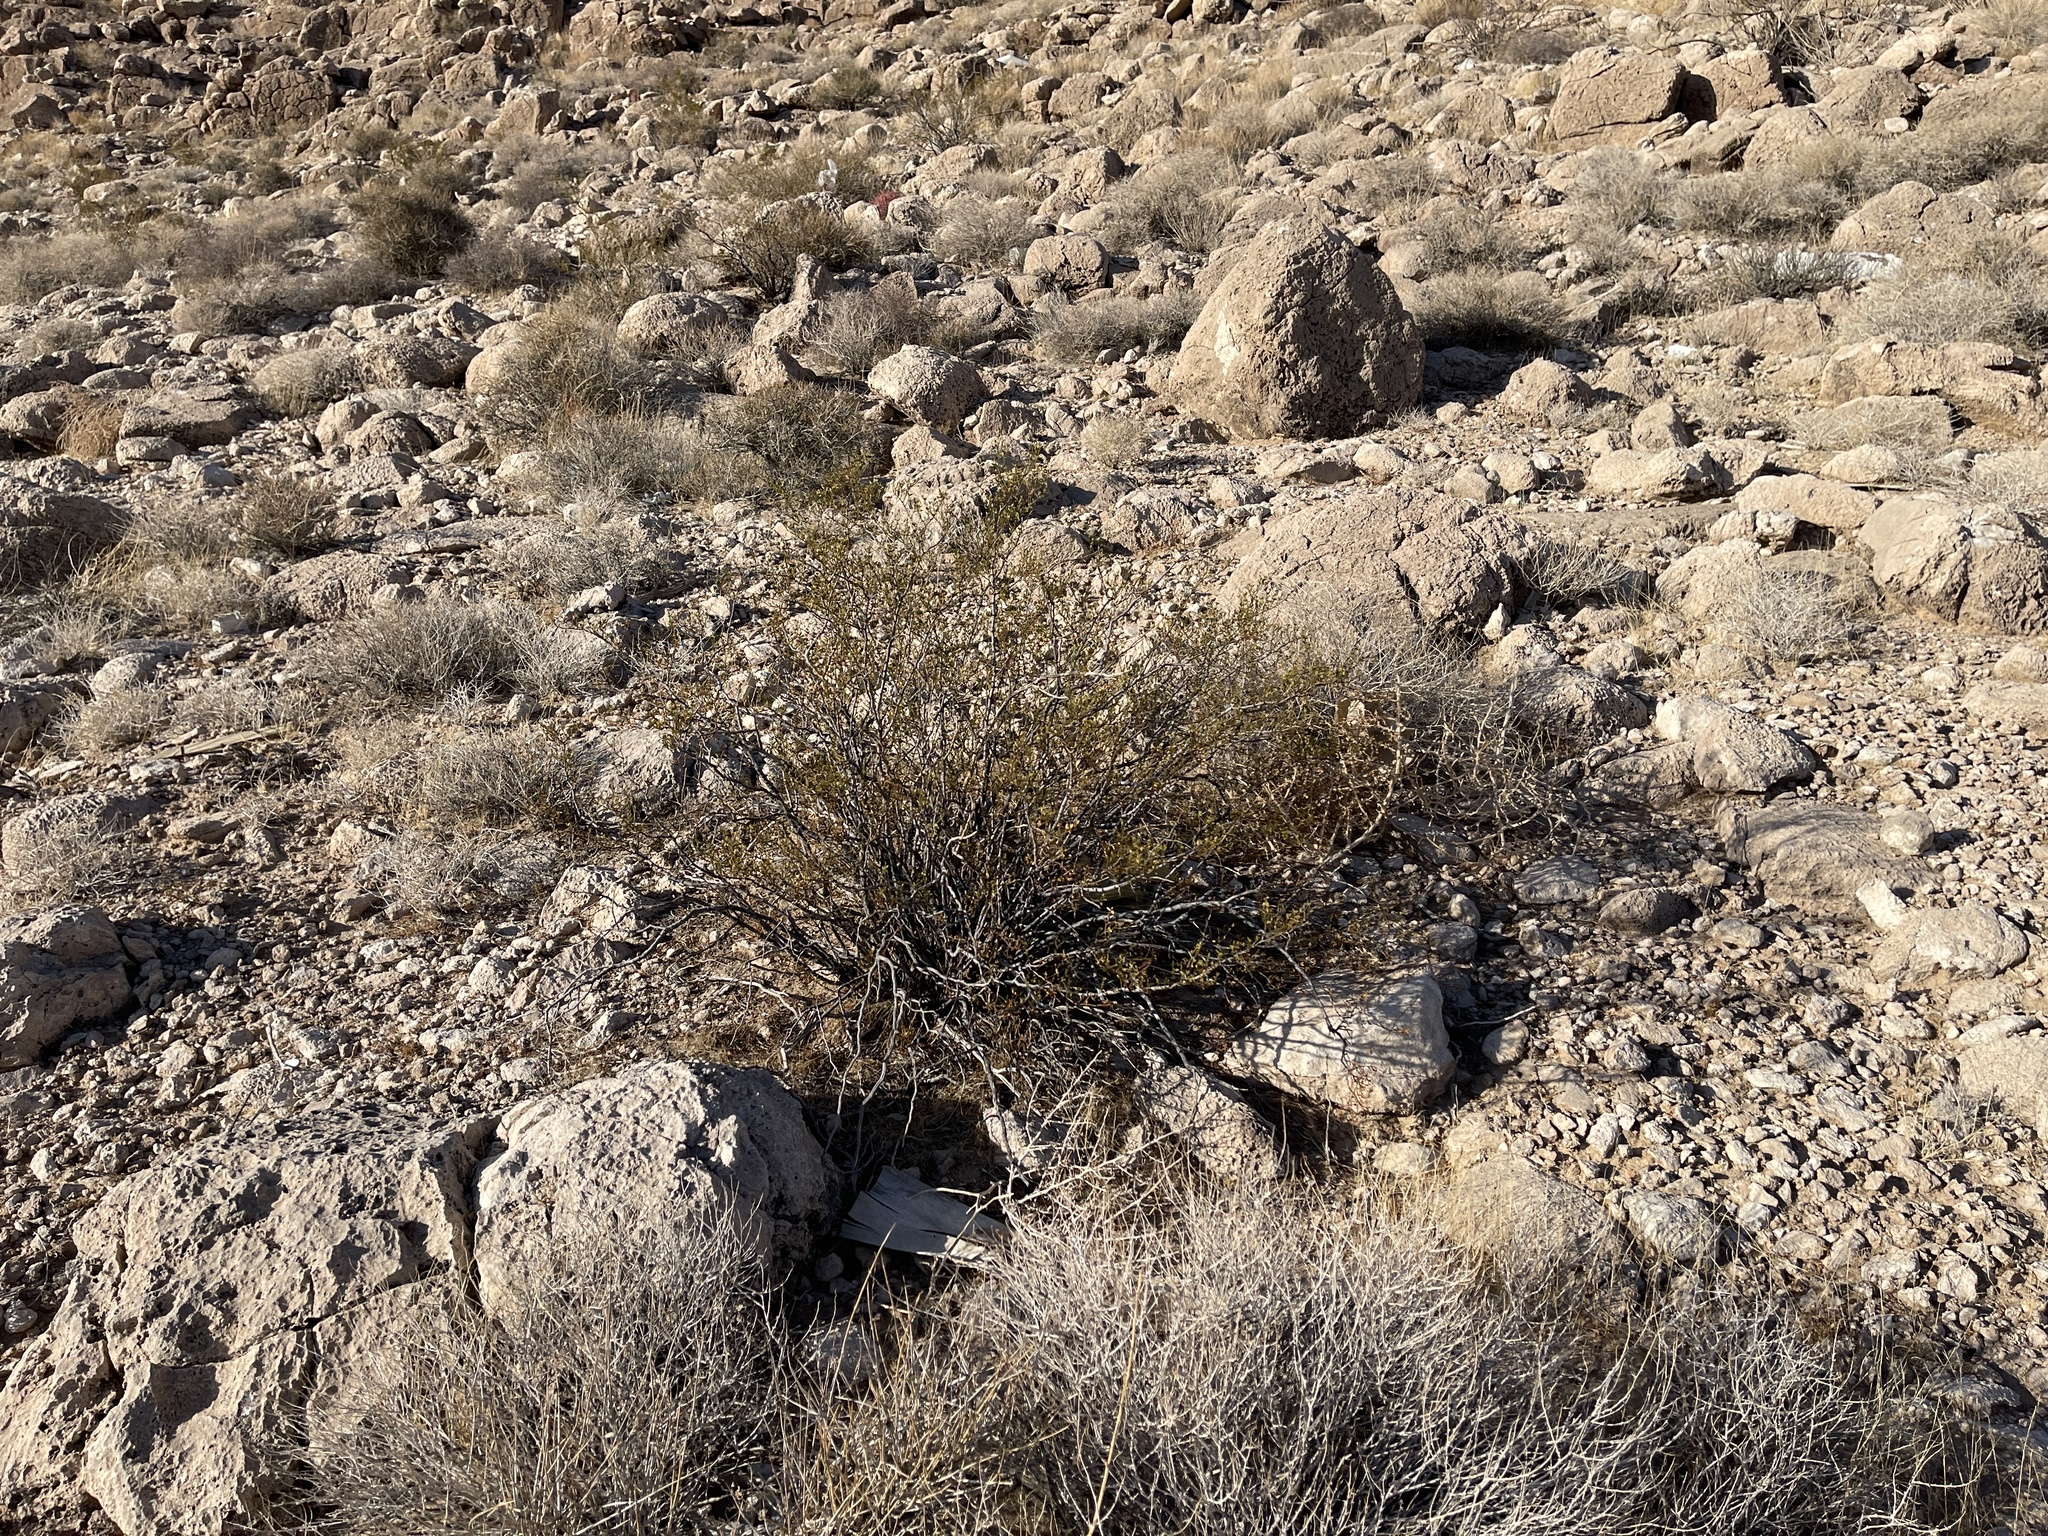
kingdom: Plantae
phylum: Tracheophyta
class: Magnoliopsida
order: Zygophyllales
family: Zygophyllaceae
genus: Larrea
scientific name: Larrea tridentata
